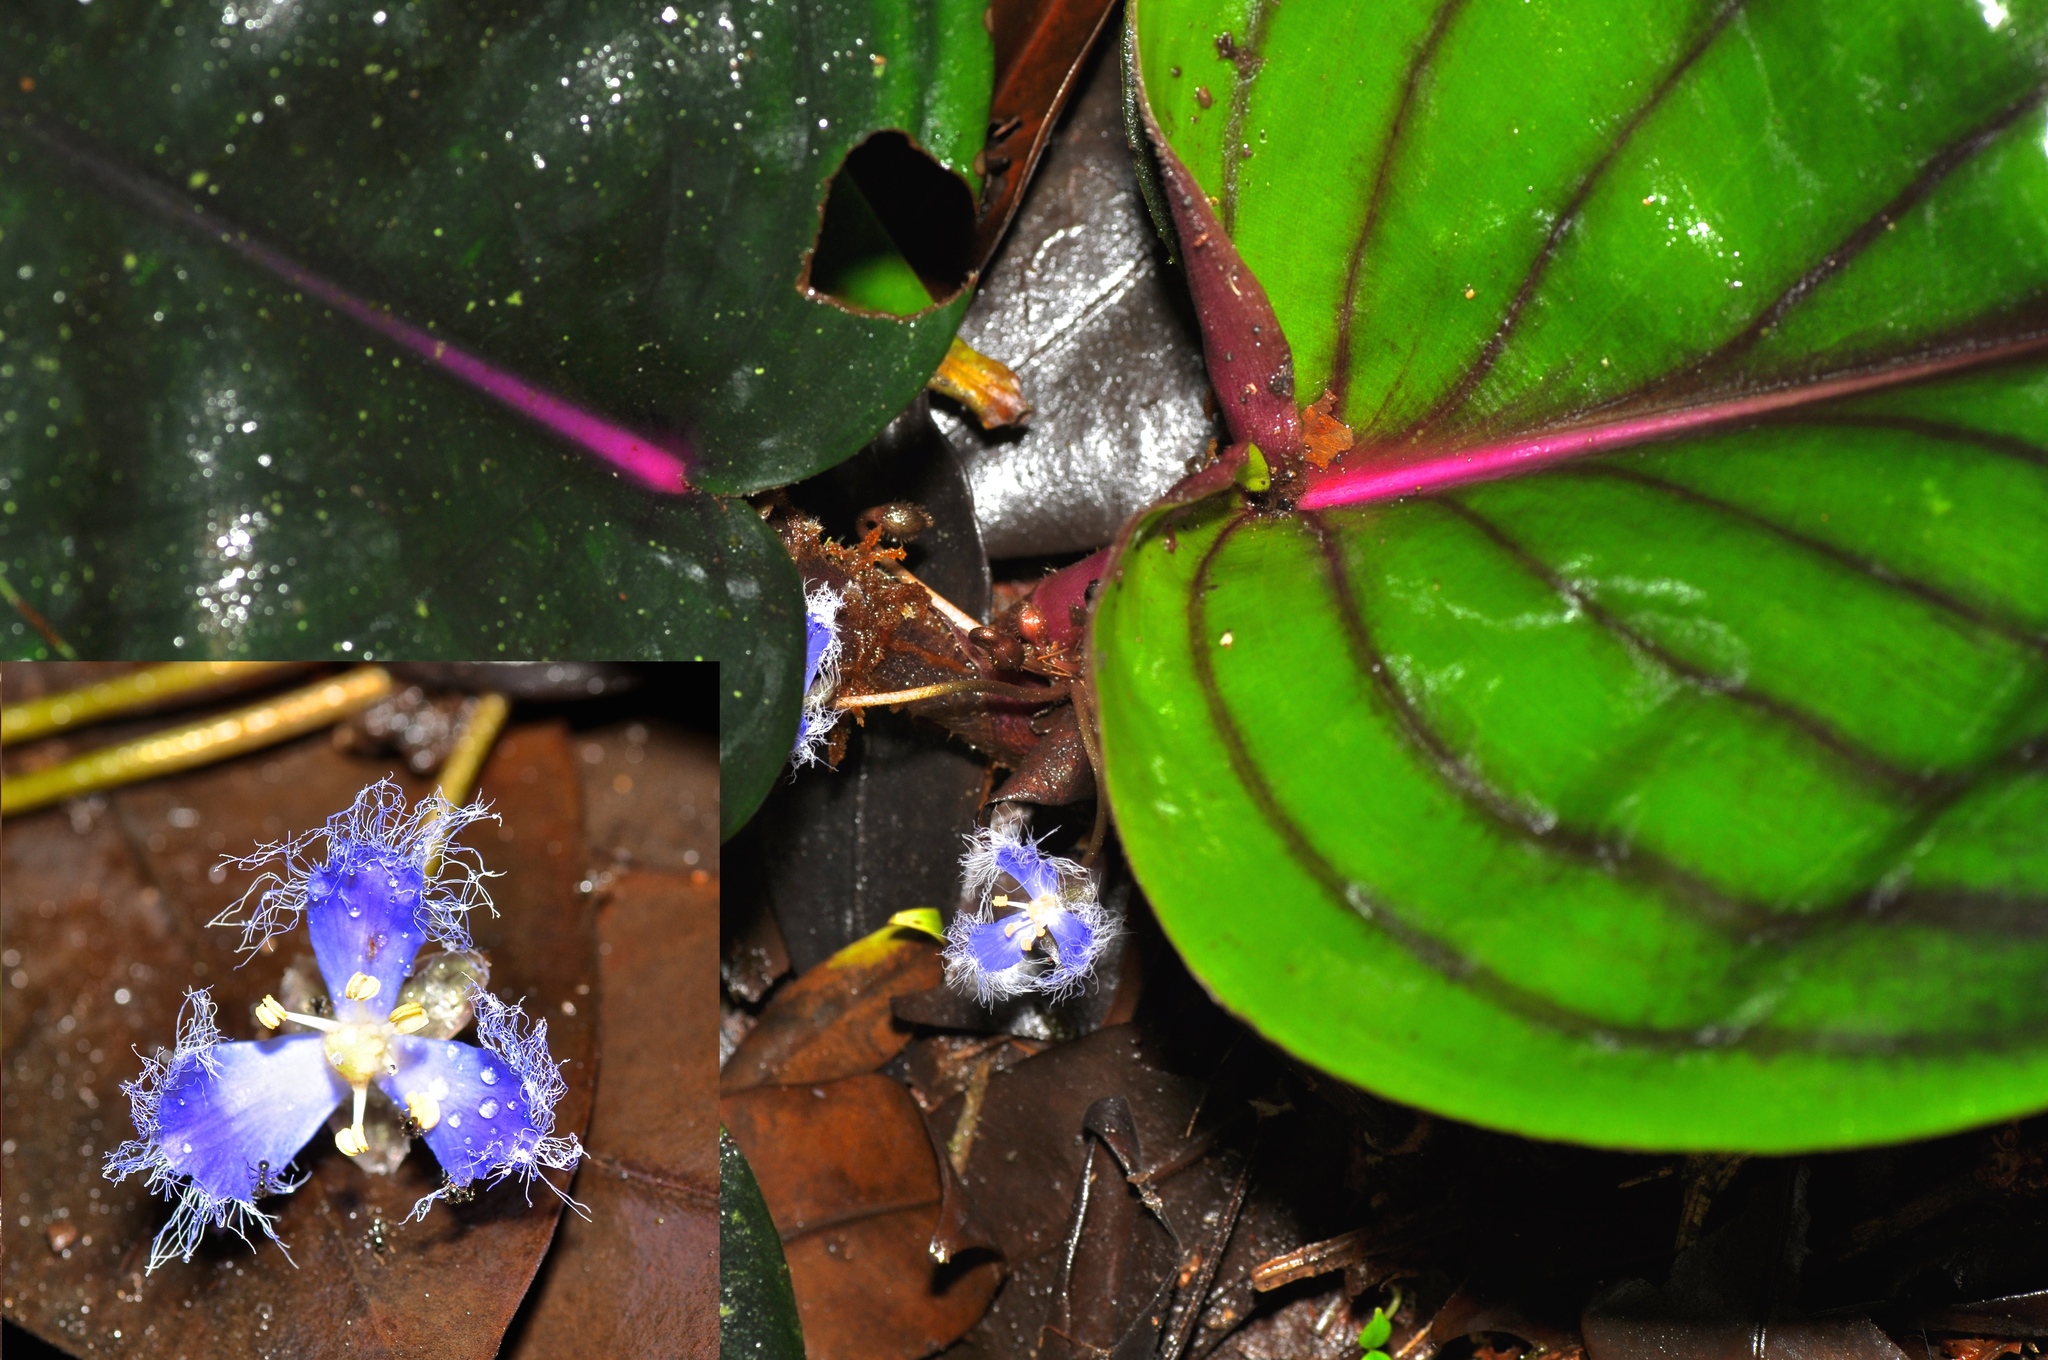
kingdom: Plantae
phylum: Tracheophyta
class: Liliopsida
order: Commelinales
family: Commelinaceae
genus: Geogenanthus
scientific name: Geogenanthus ciliatus
